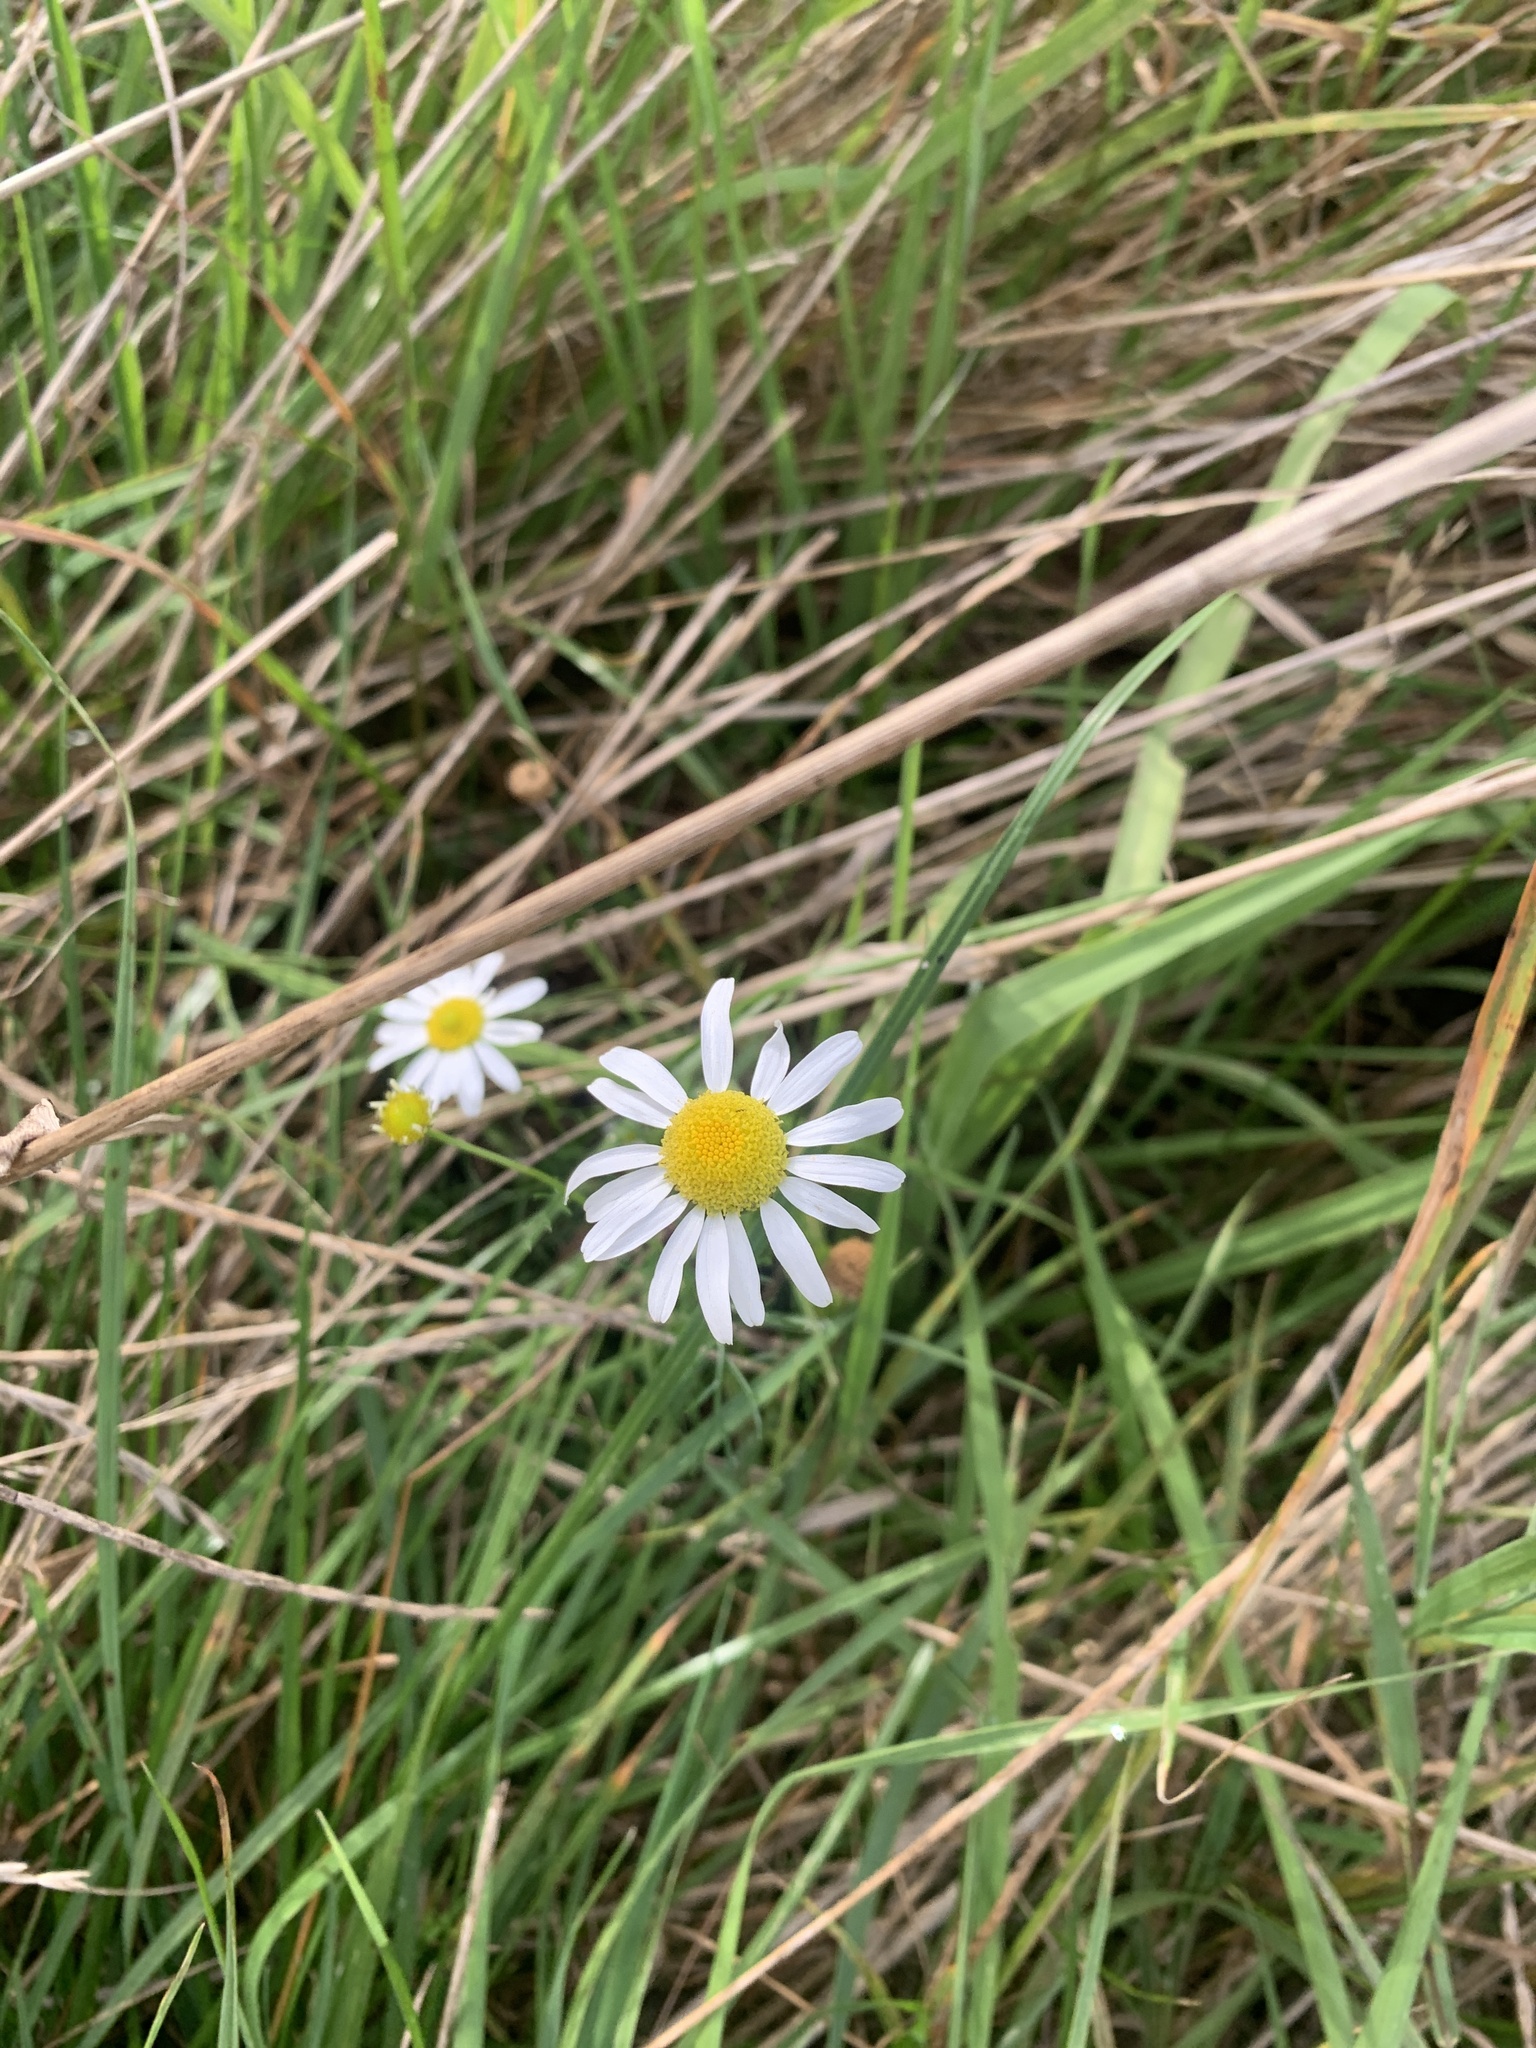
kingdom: Plantae
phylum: Tracheophyta
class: Magnoliopsida
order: Asterales
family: Asteraceae
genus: Tripleurospermum
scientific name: Tripleurospermum inodorum
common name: Scentless mayweed
